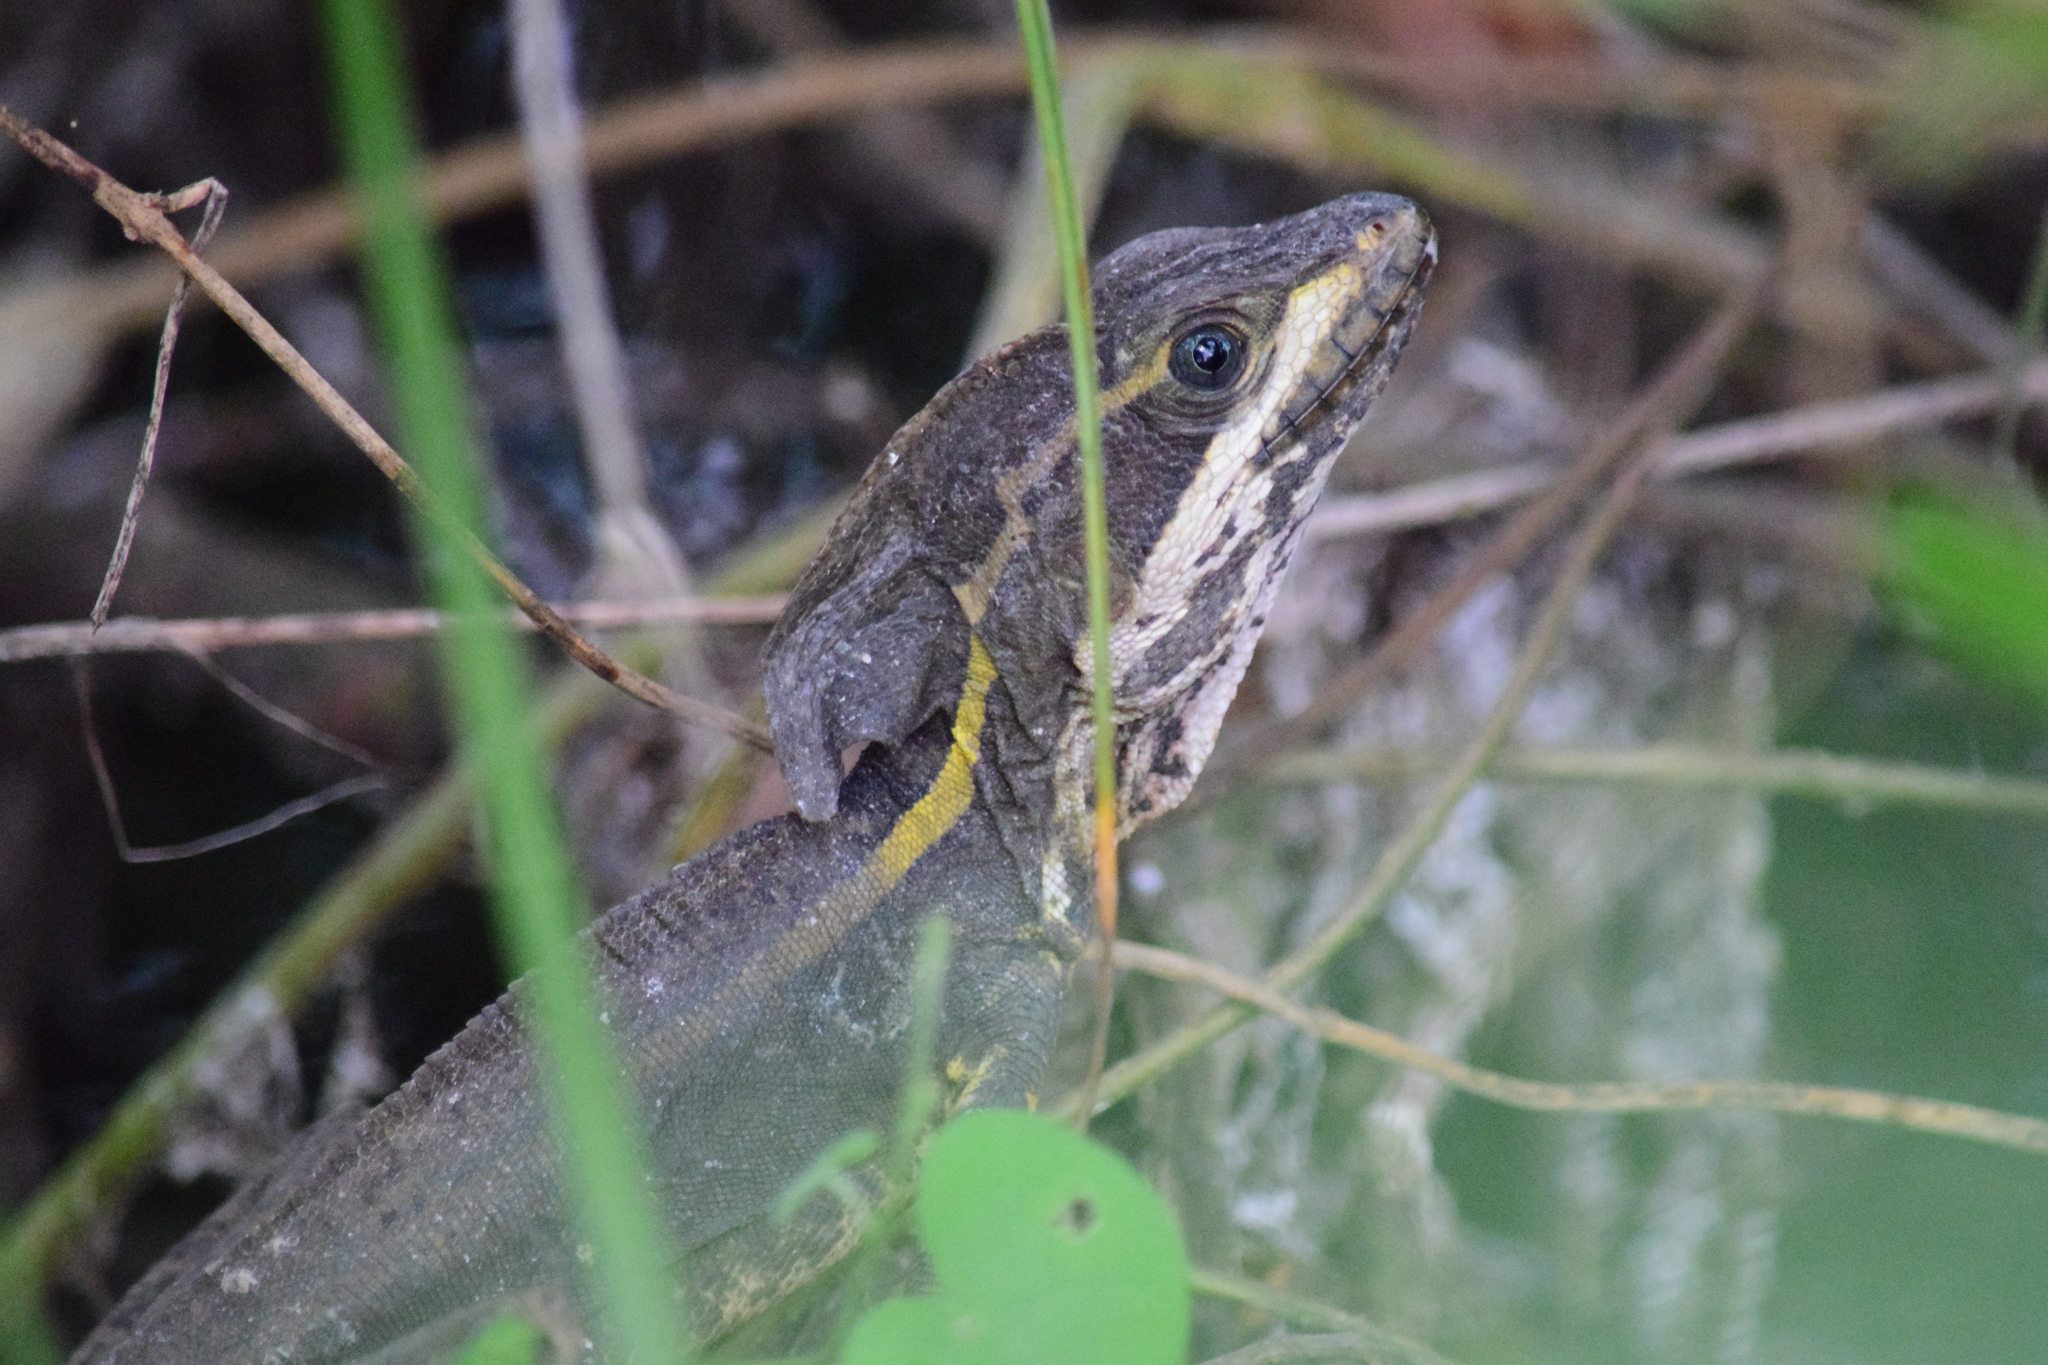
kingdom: Animalia
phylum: Chordata
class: Squamata
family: Corytophanidae
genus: Basiliscus
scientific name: Basiliscus vittatus
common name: Brown basilisk
